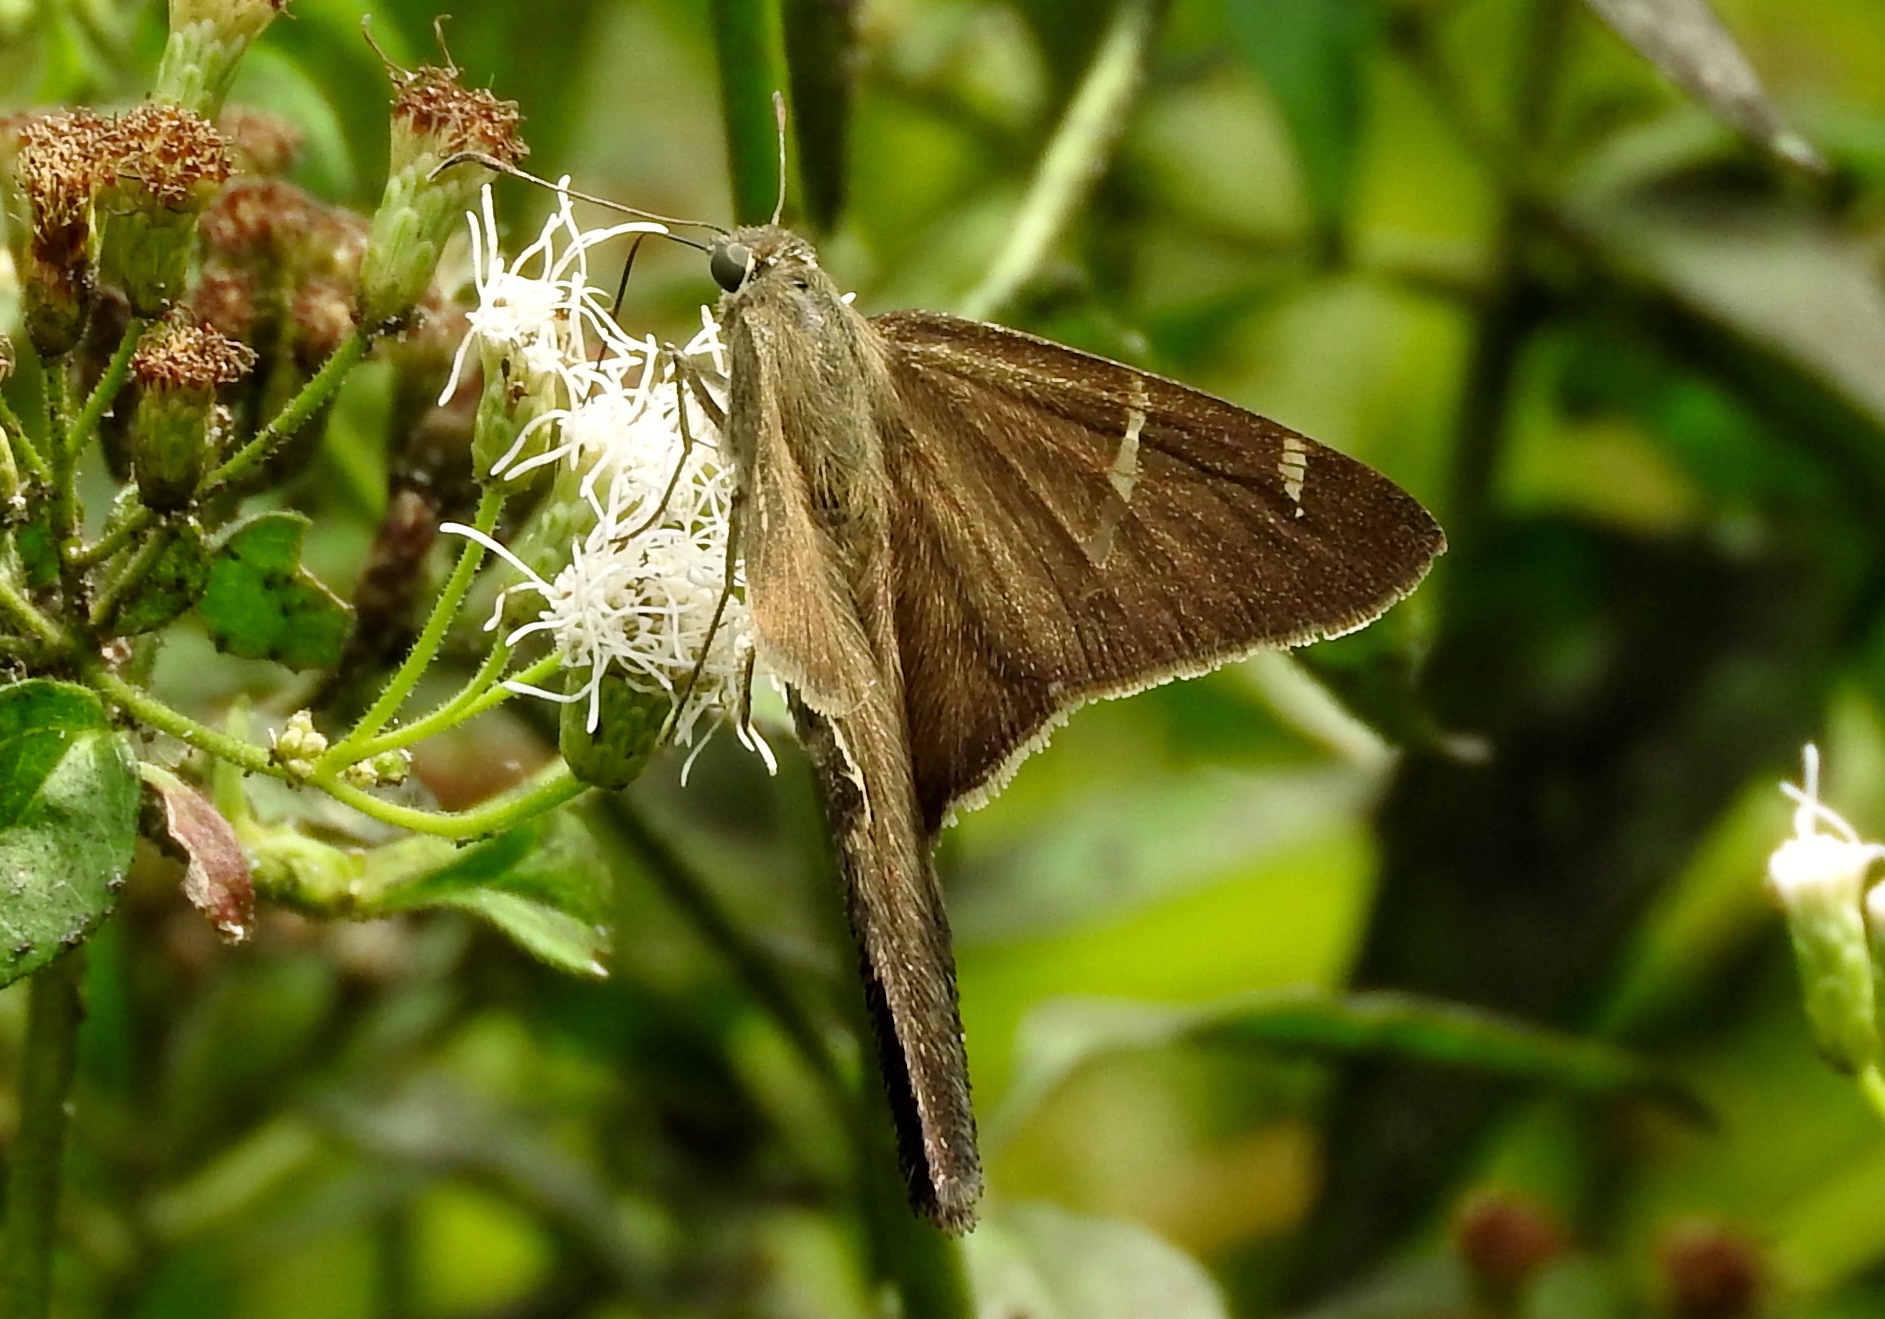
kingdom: Animalia
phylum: Arthropoda
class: Insecta
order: Lepidoptera
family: Hesperiidae
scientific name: Hesperiidae
